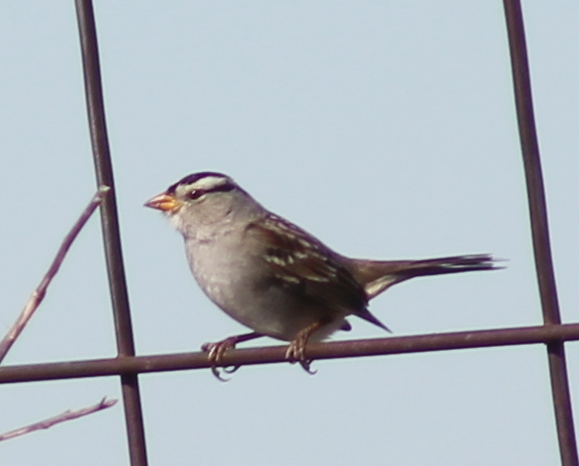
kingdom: Animalia
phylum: Chordata
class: Aves
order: Passeriformes
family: Passerellidae
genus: Zonotrichia
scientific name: Zonotrichia leucophrys
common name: White-crowned sparrow
